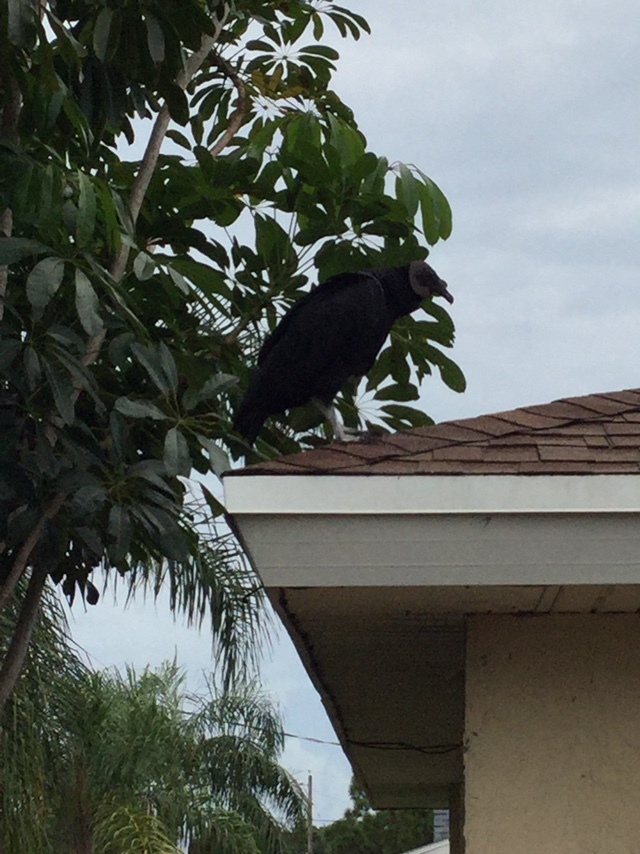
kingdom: Animalia
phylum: Chordata
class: Aves
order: Accipitriformes
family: Cathartidae
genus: Coragyps
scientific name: Coragyps atratus
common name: Black vulture
